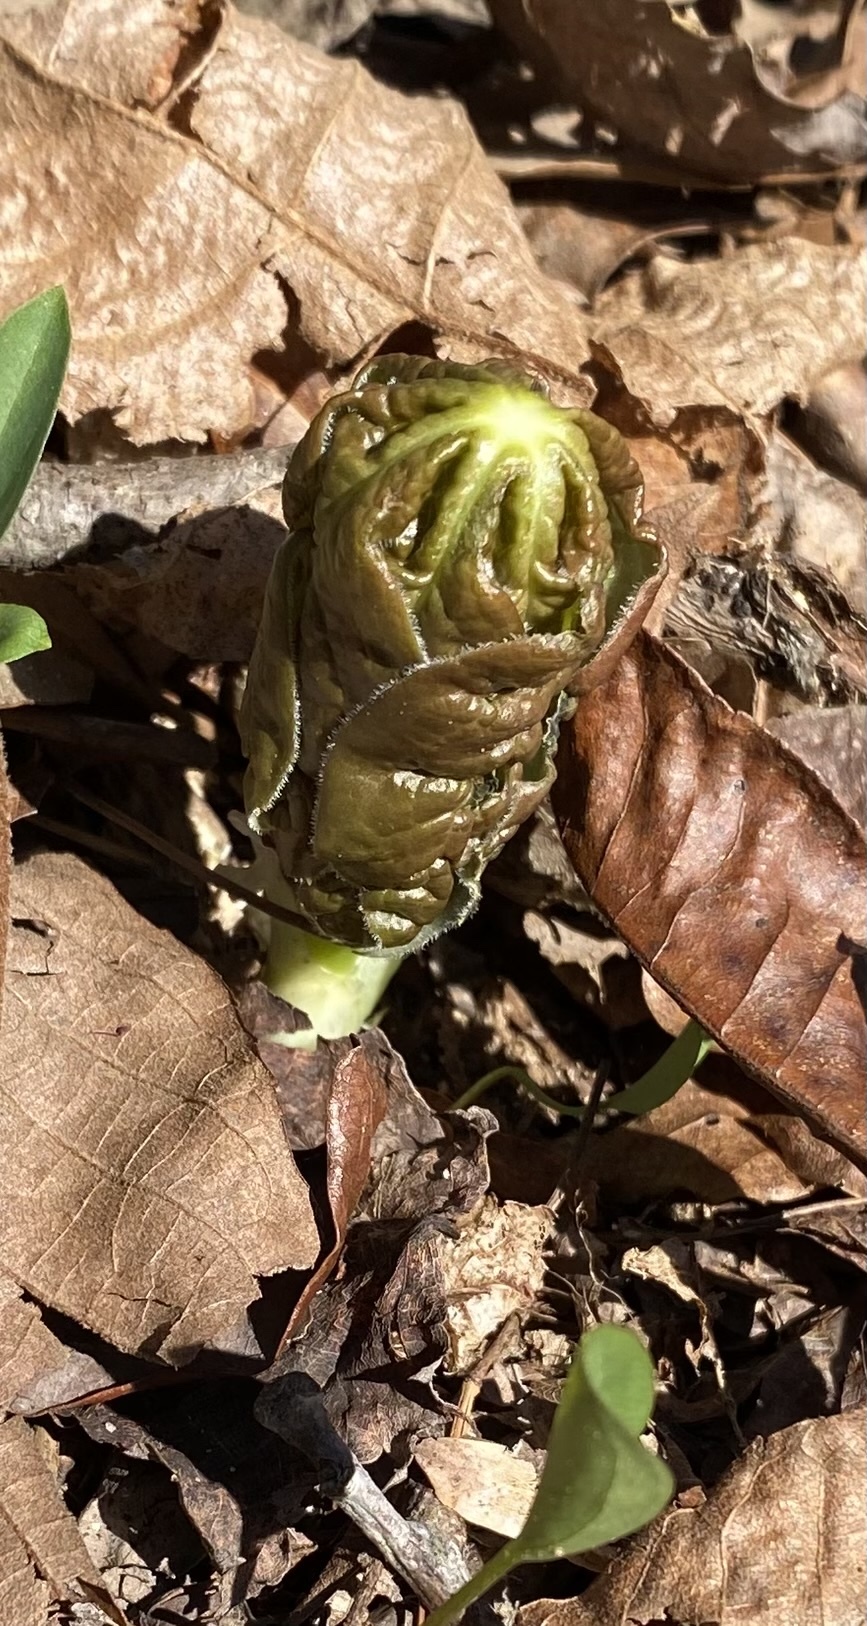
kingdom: Plantae
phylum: Tracheophyta
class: Magnoliopsida
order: Ranunculales
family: Berberidaceae
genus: Podophyllum
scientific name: Podophyllum peltatum
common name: Wild mandrake
